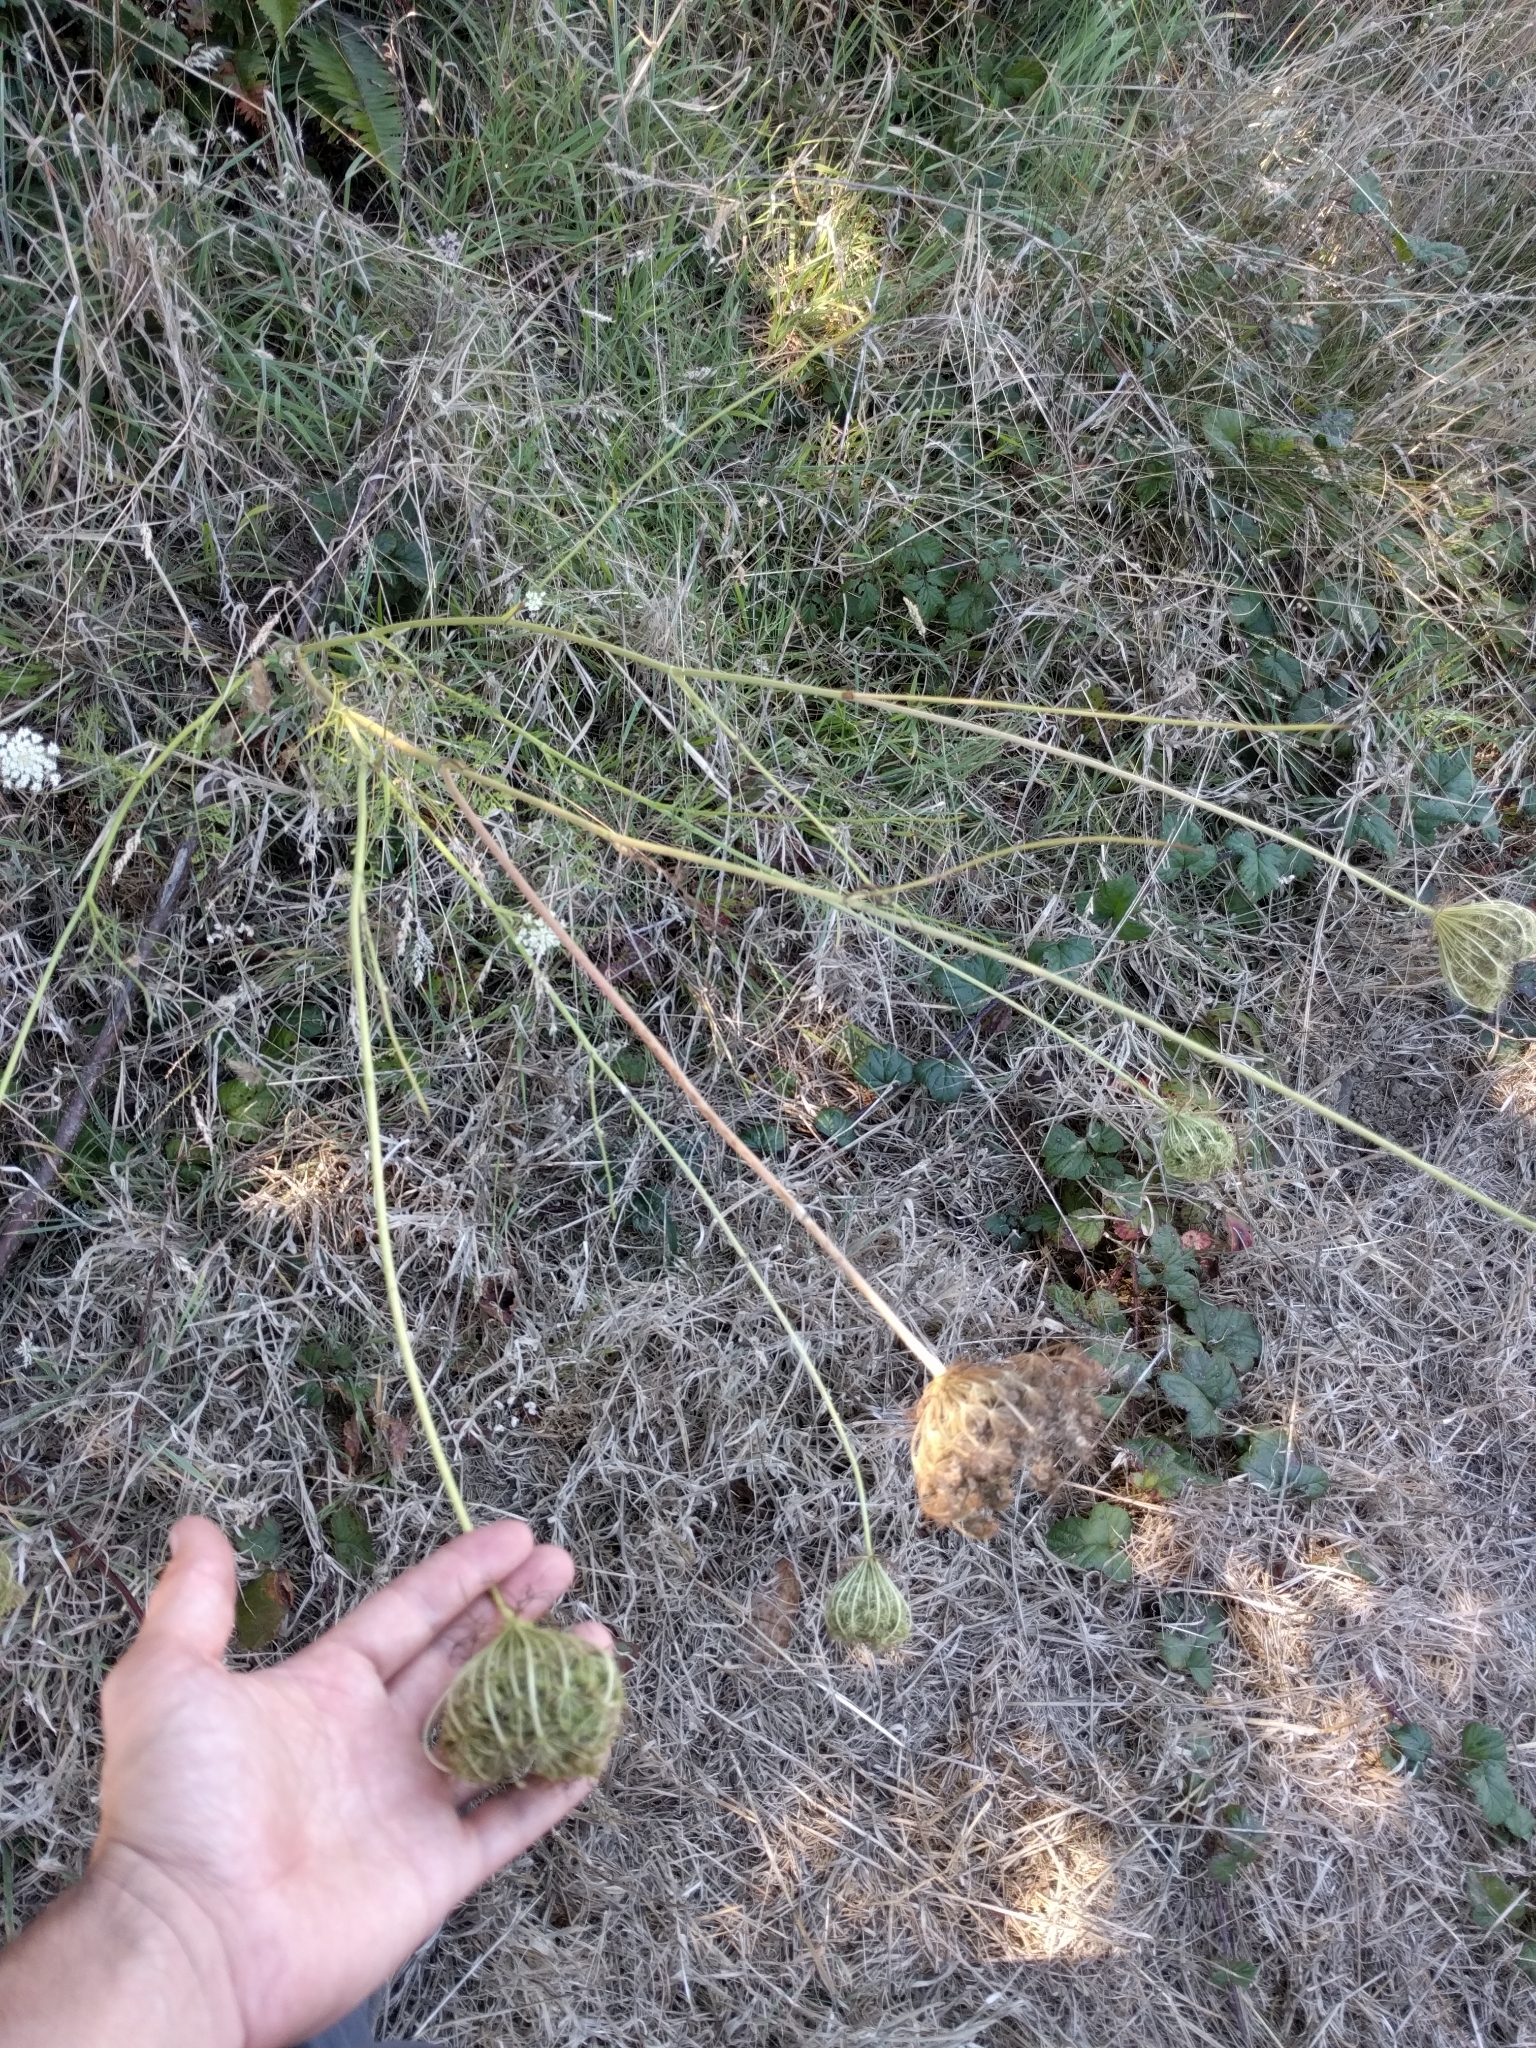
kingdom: Plantae
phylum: Tracheophyta
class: Magnoliopsida
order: Apiales
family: Apiaceae
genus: Daucus
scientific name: Daucus carota
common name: Wild carrot
